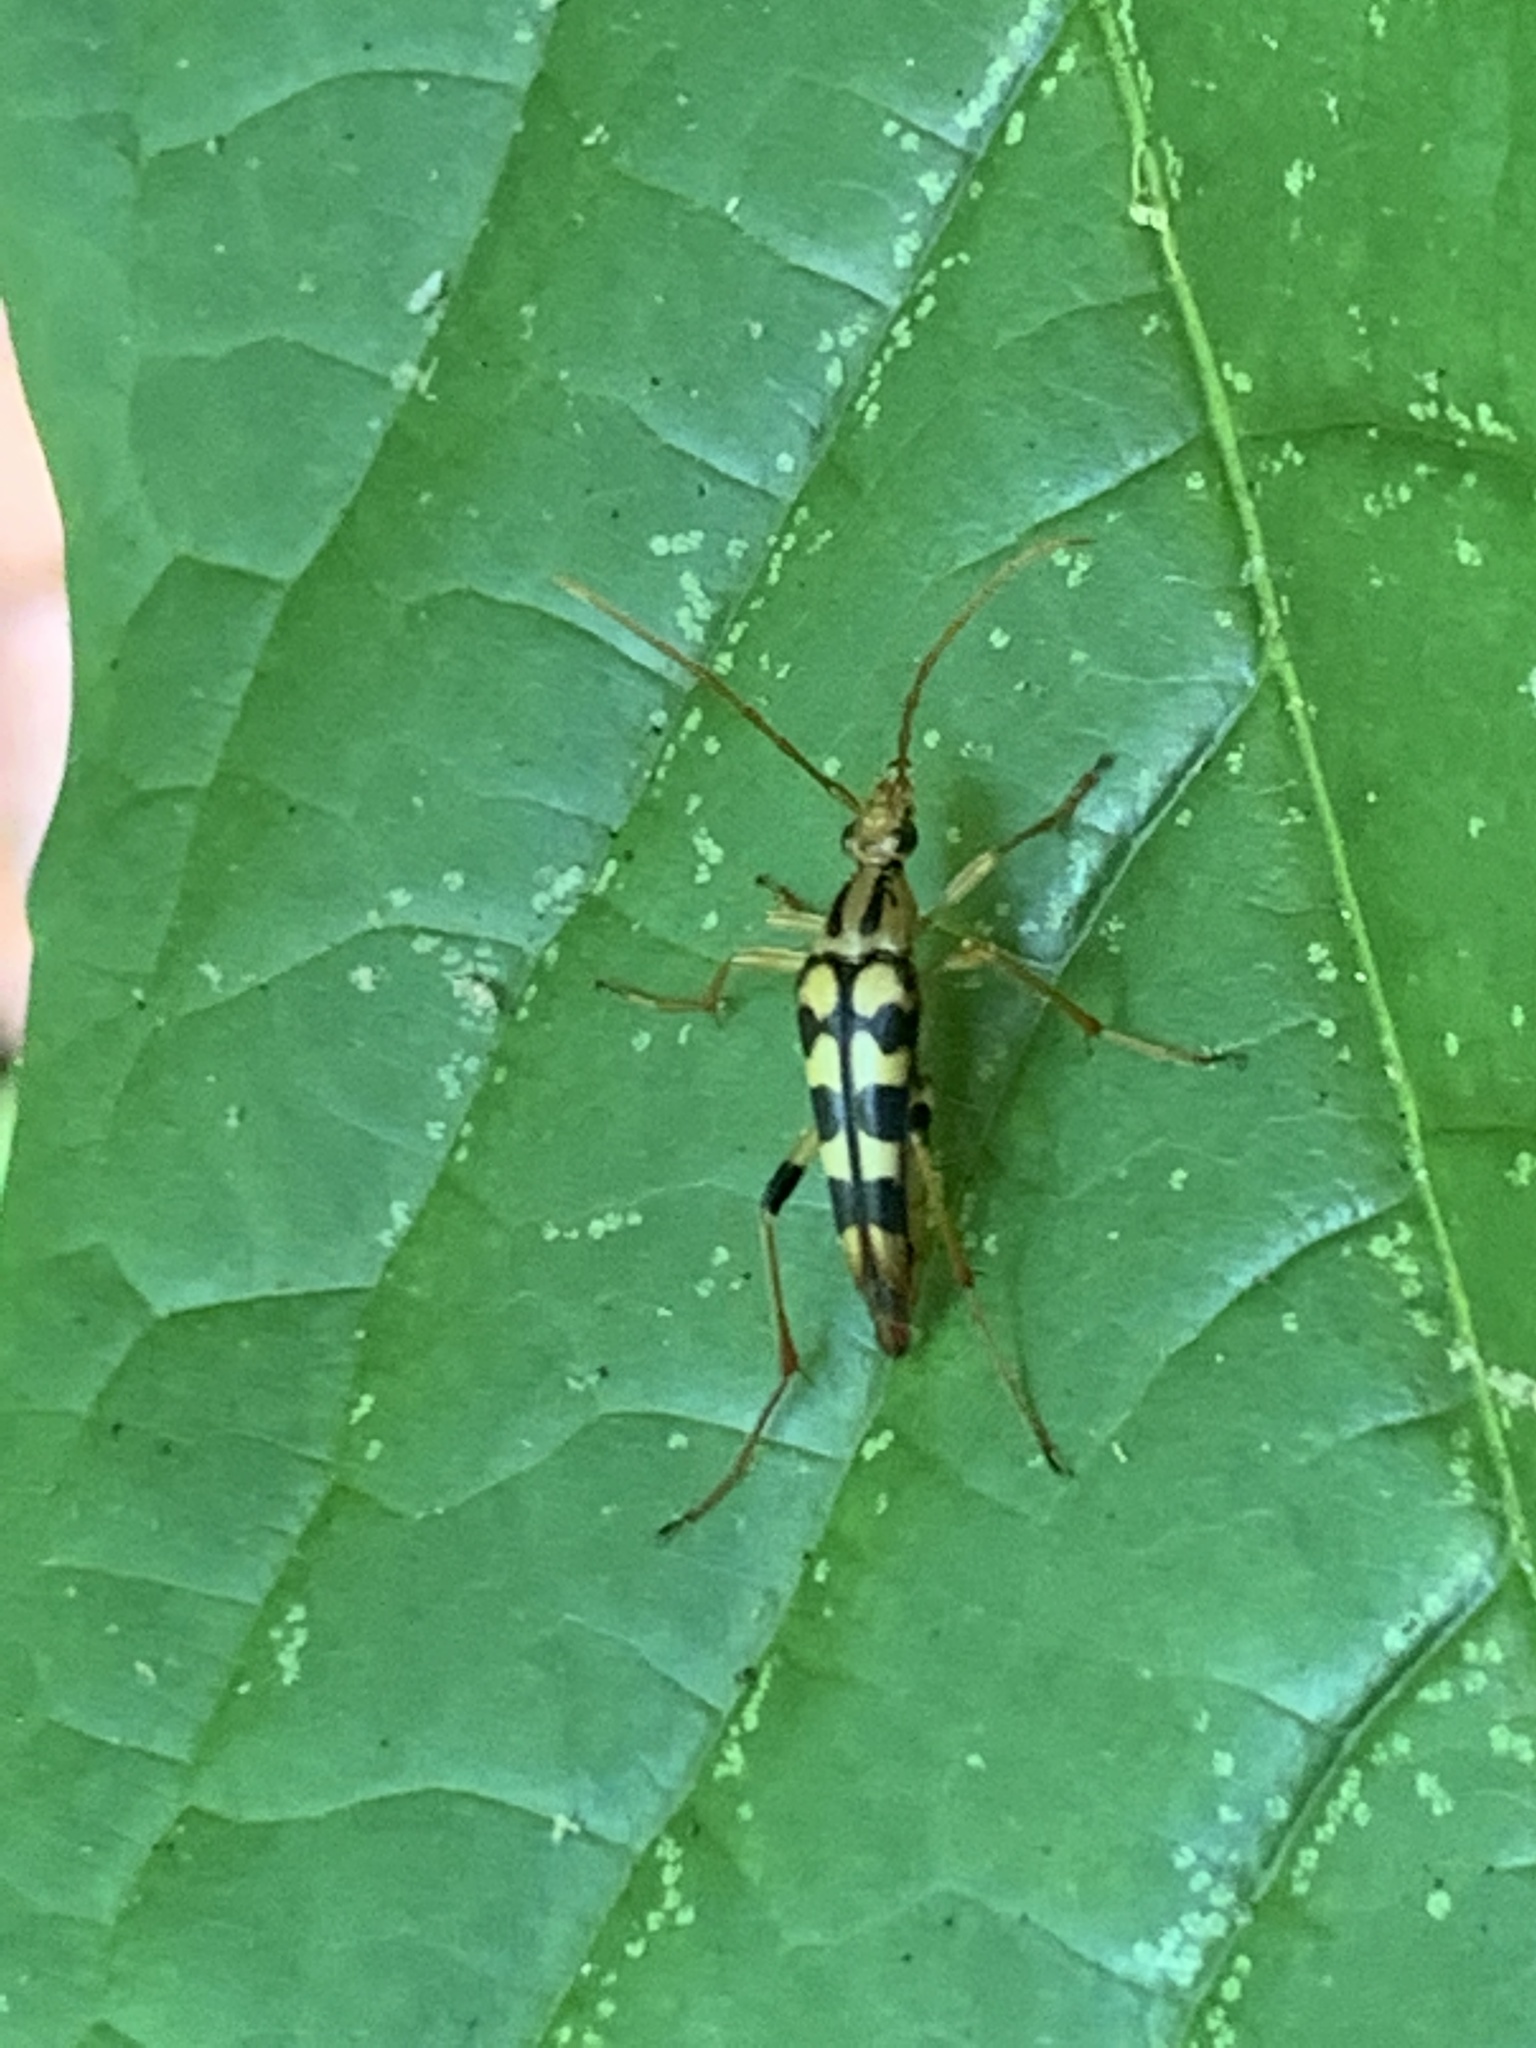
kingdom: Animalia
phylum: Arthropoda
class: Insecta
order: Coleoptera
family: Cerambycidae
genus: Strangalia
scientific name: Strangalia luteicornis
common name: Yellow-horned flower longhorn beetle
